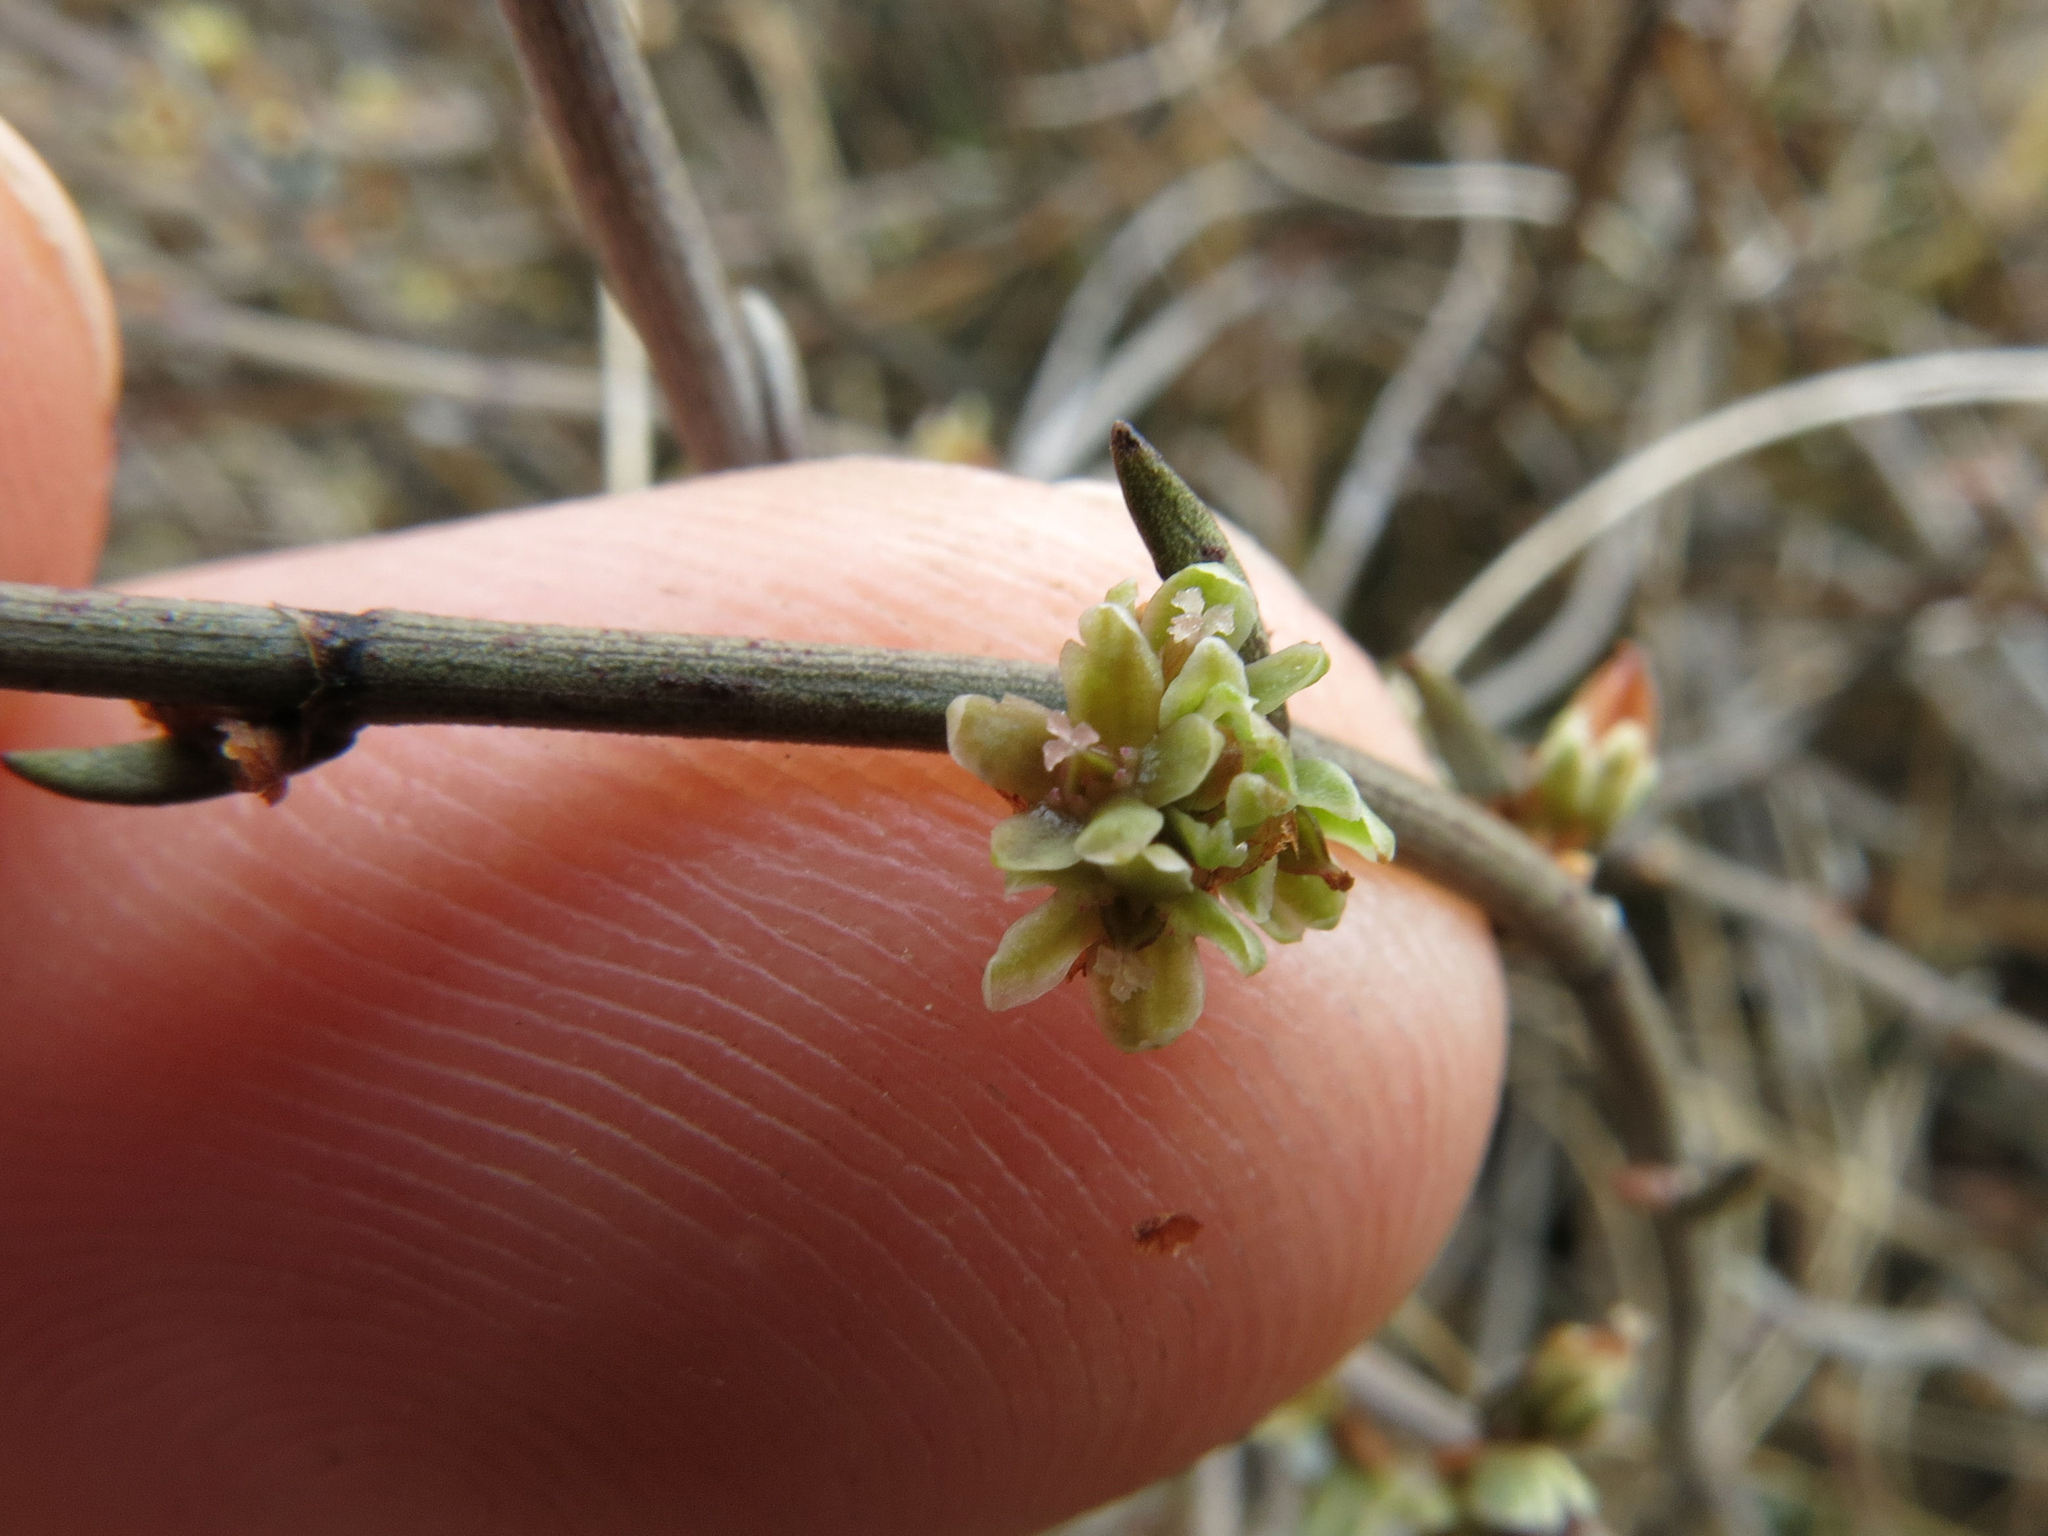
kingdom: Plantae
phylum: Tracheophyta
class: Magnoliopsida
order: Caryophyllales
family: Polygonaceae
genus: Muehlenbeckia
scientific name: Muehlenbeckia ephedroides
